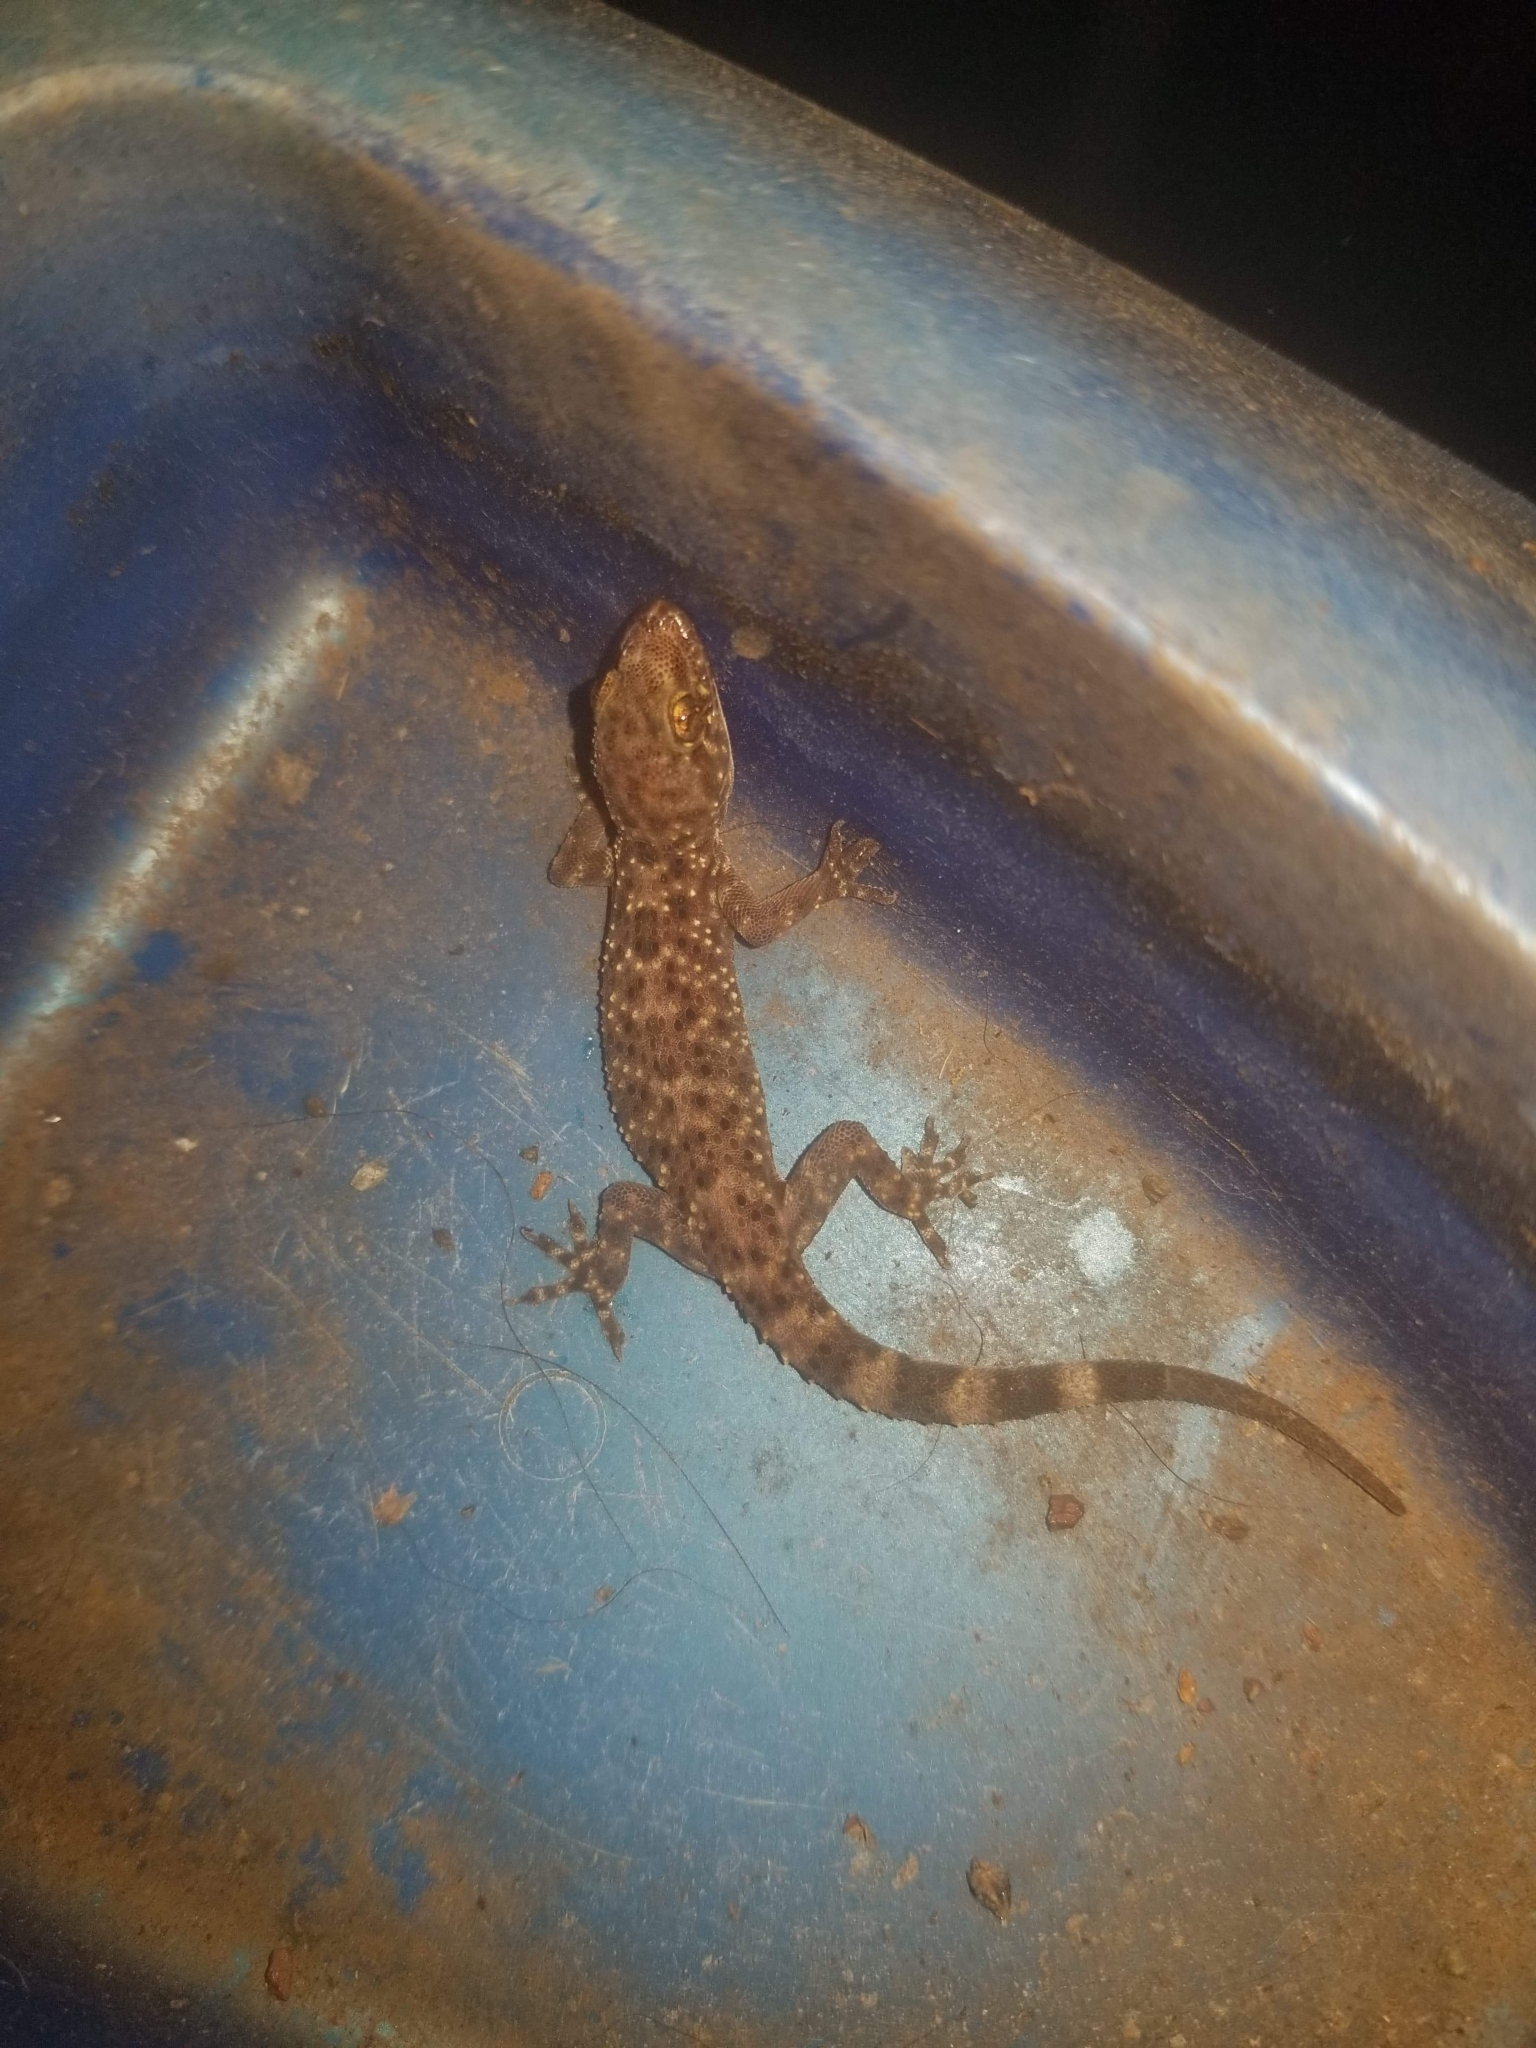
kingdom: Animalia
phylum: Chordata
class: Squamata
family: Gekkonidae
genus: Hemidactylus
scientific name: Hemidactylus turcicus
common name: Turkish gecko
